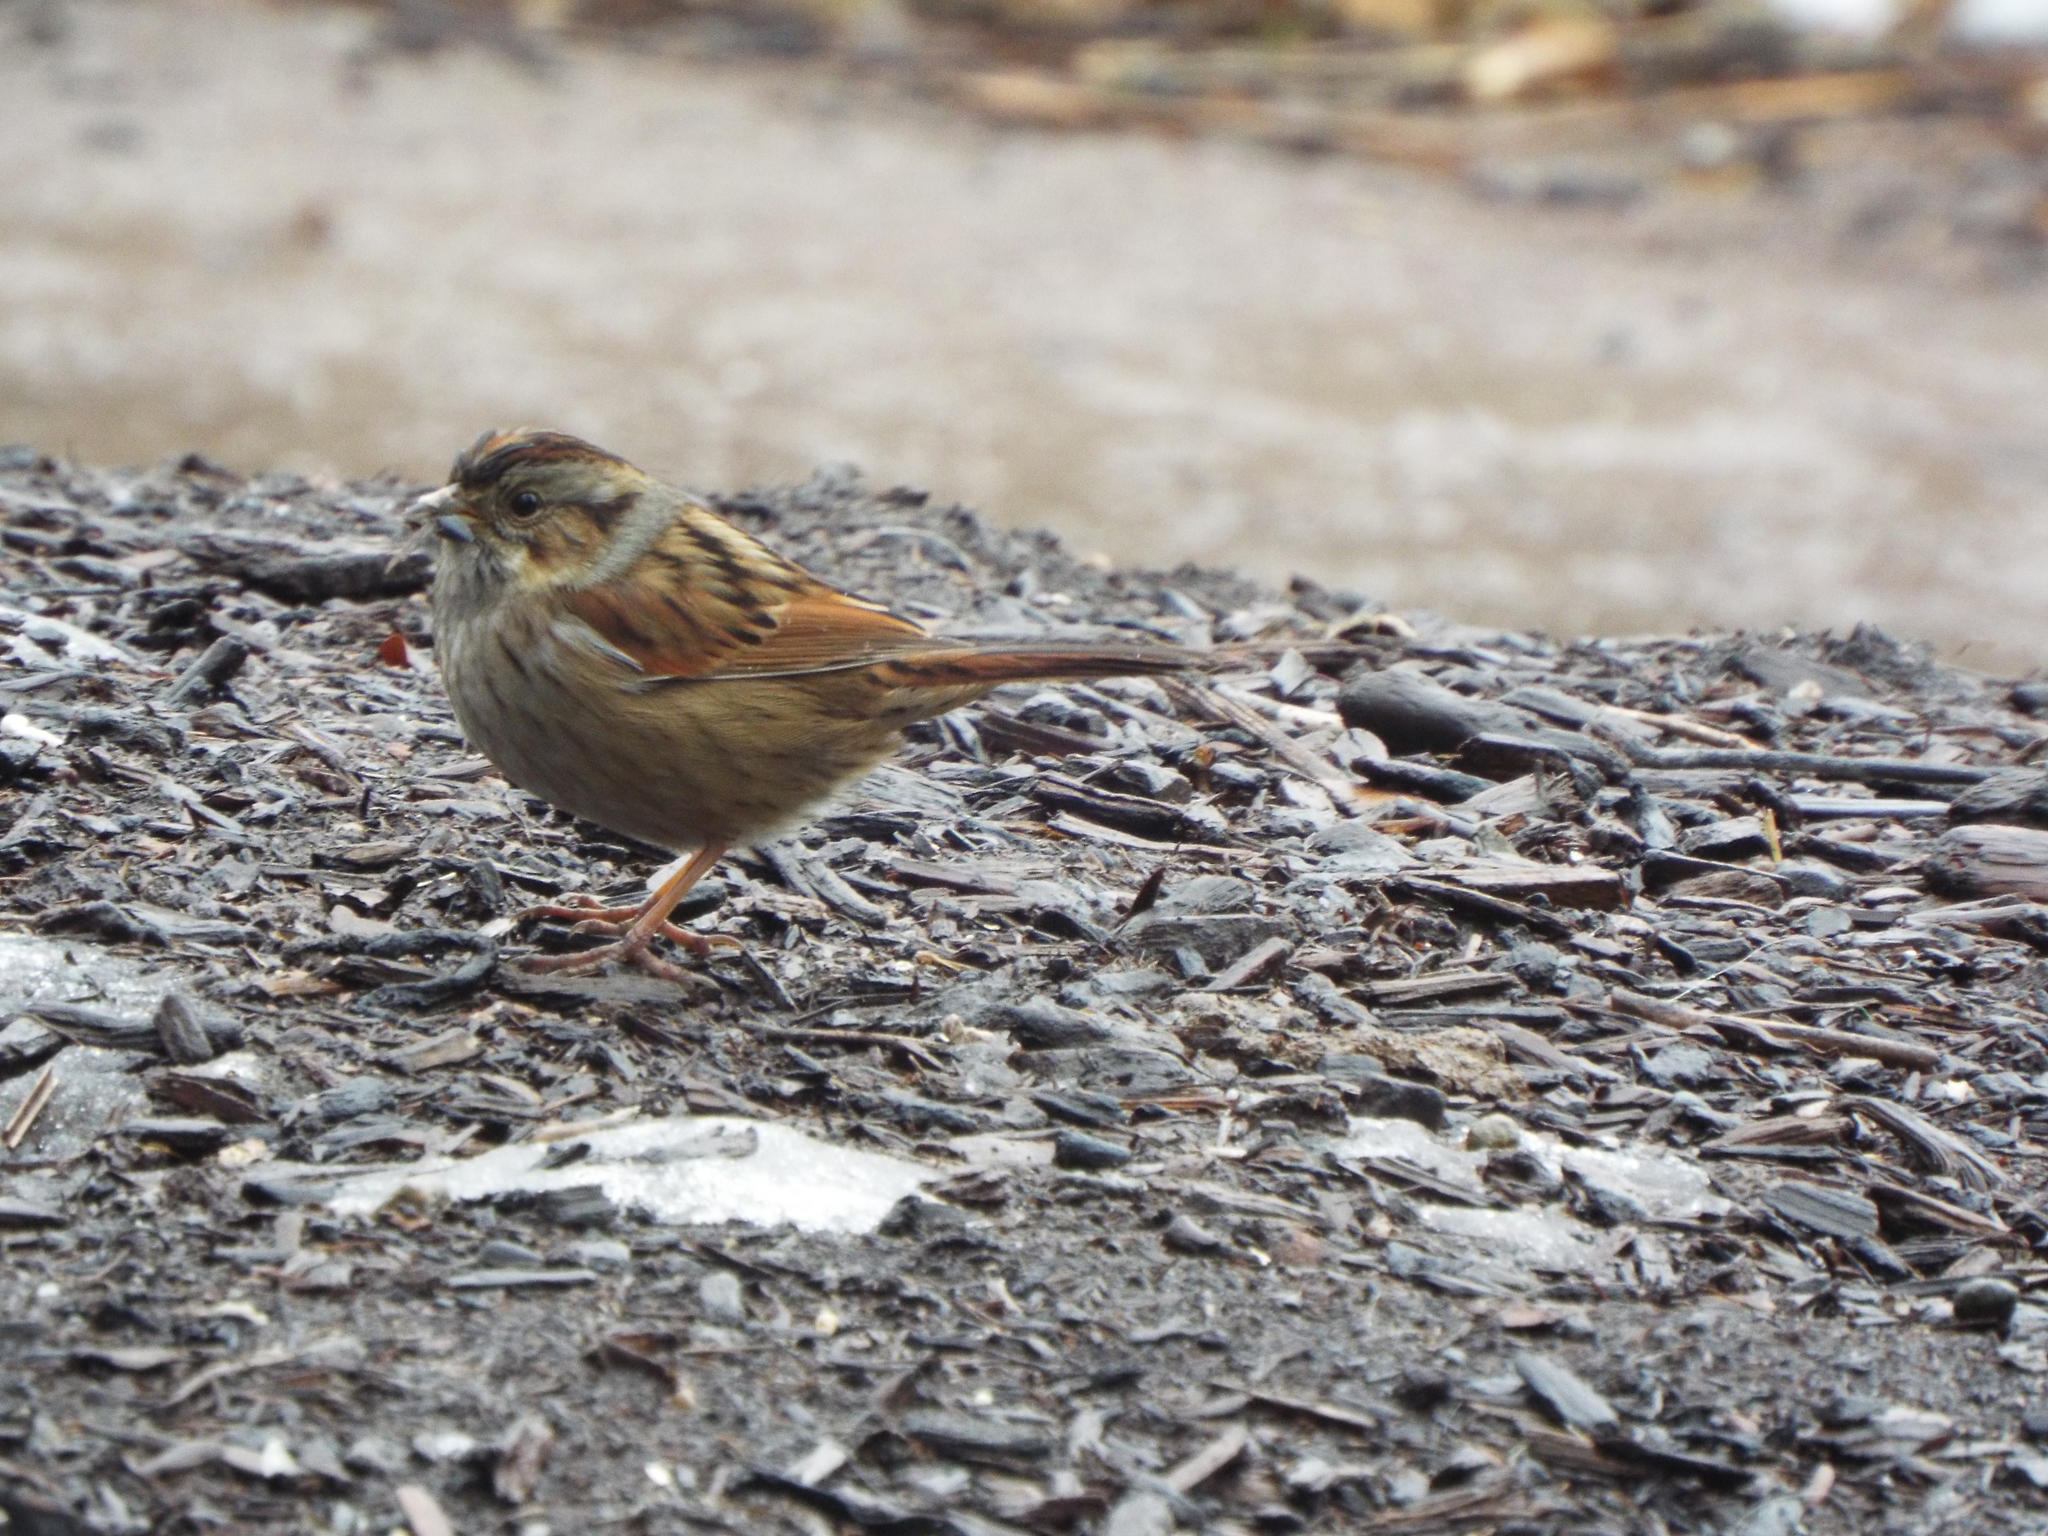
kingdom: Animalia
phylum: Chordata
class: Aves
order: Passeriformes
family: Passerellidae
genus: Melospiza
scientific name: Melospiza georgiana
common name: Swamp sparrow
